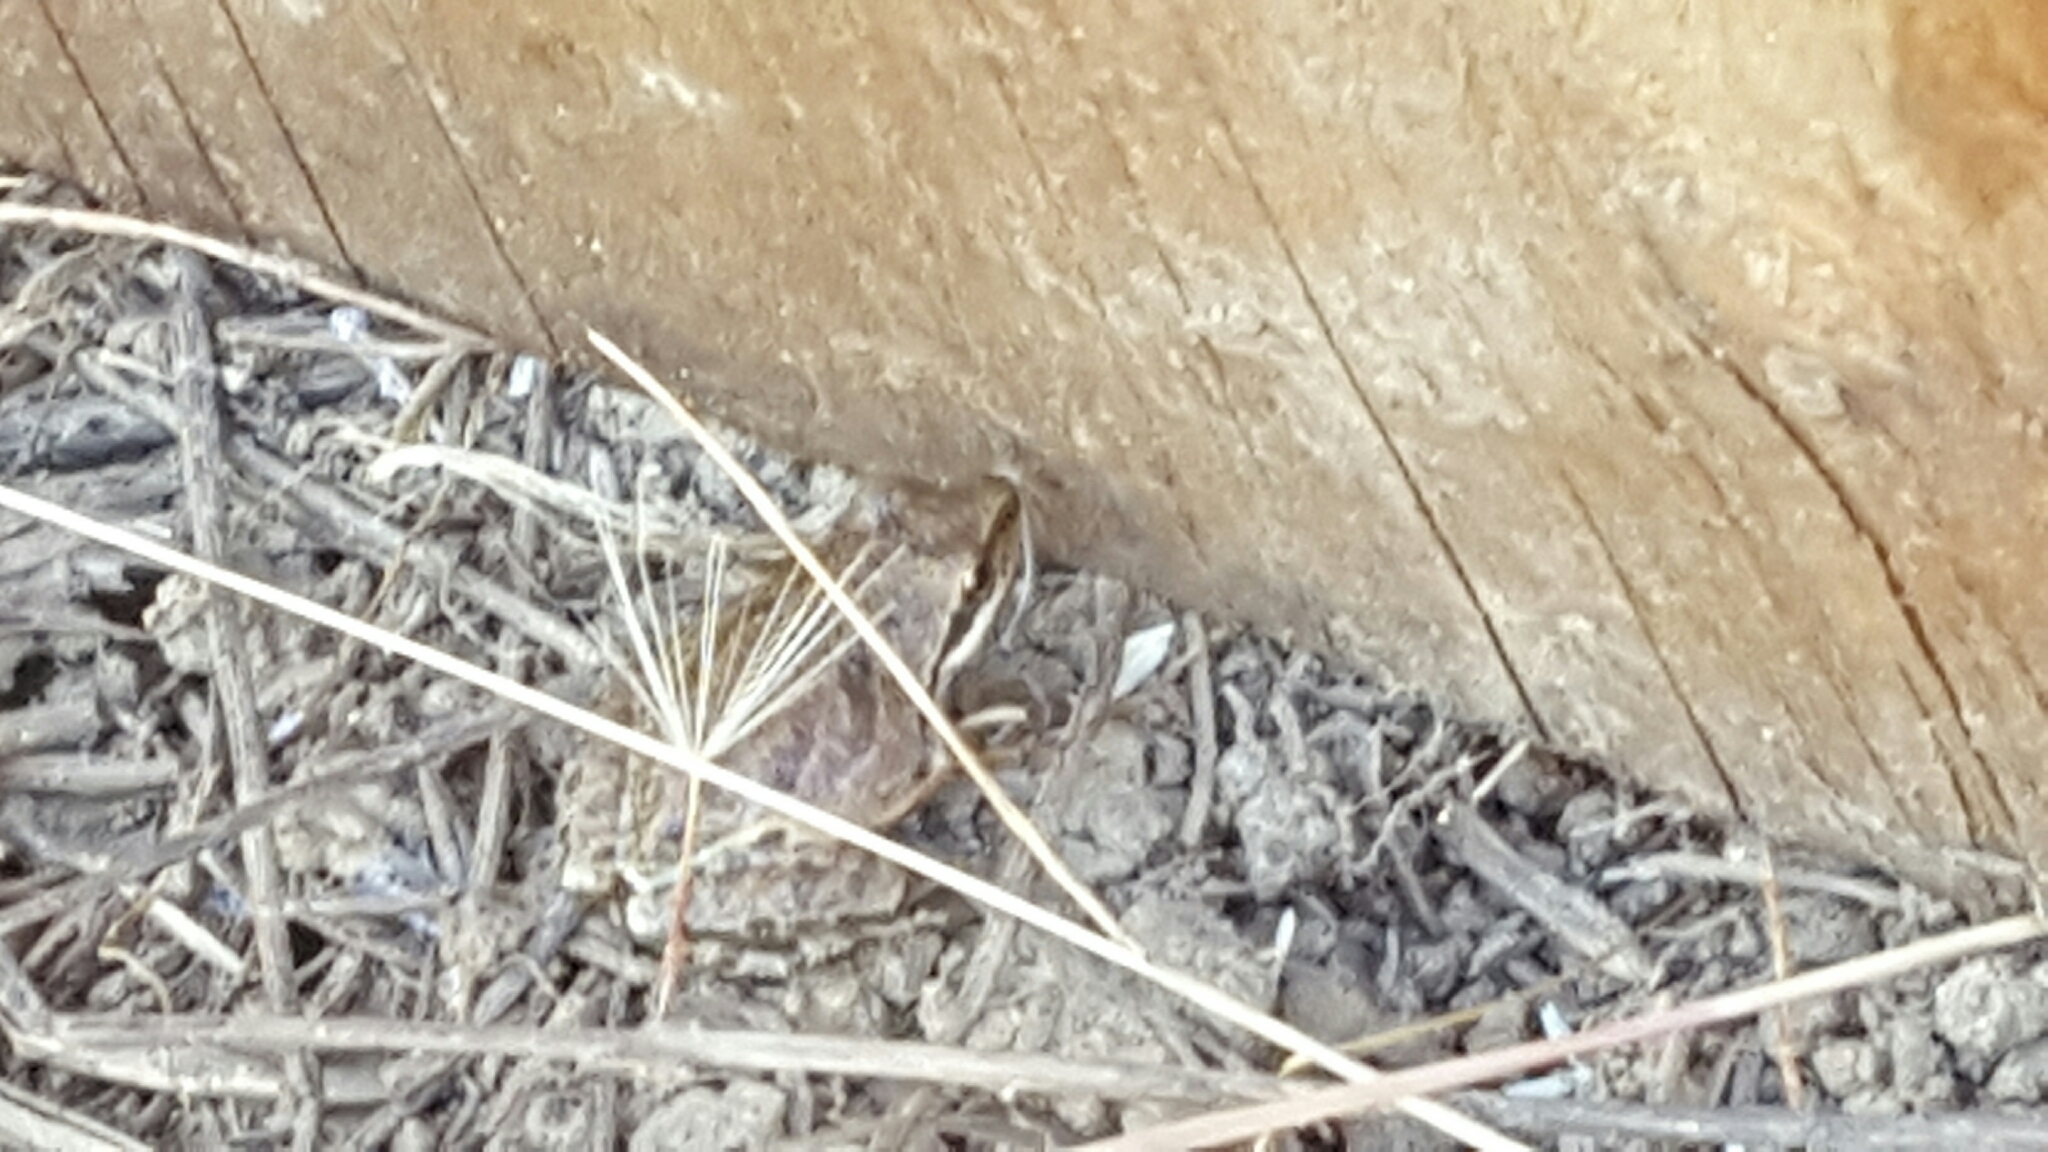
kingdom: Animalia
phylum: Chordata
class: Amphibia
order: Anura
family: Hylidae
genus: Pseudacris
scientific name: Pseudacris regilla
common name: Pacific chorus frog
